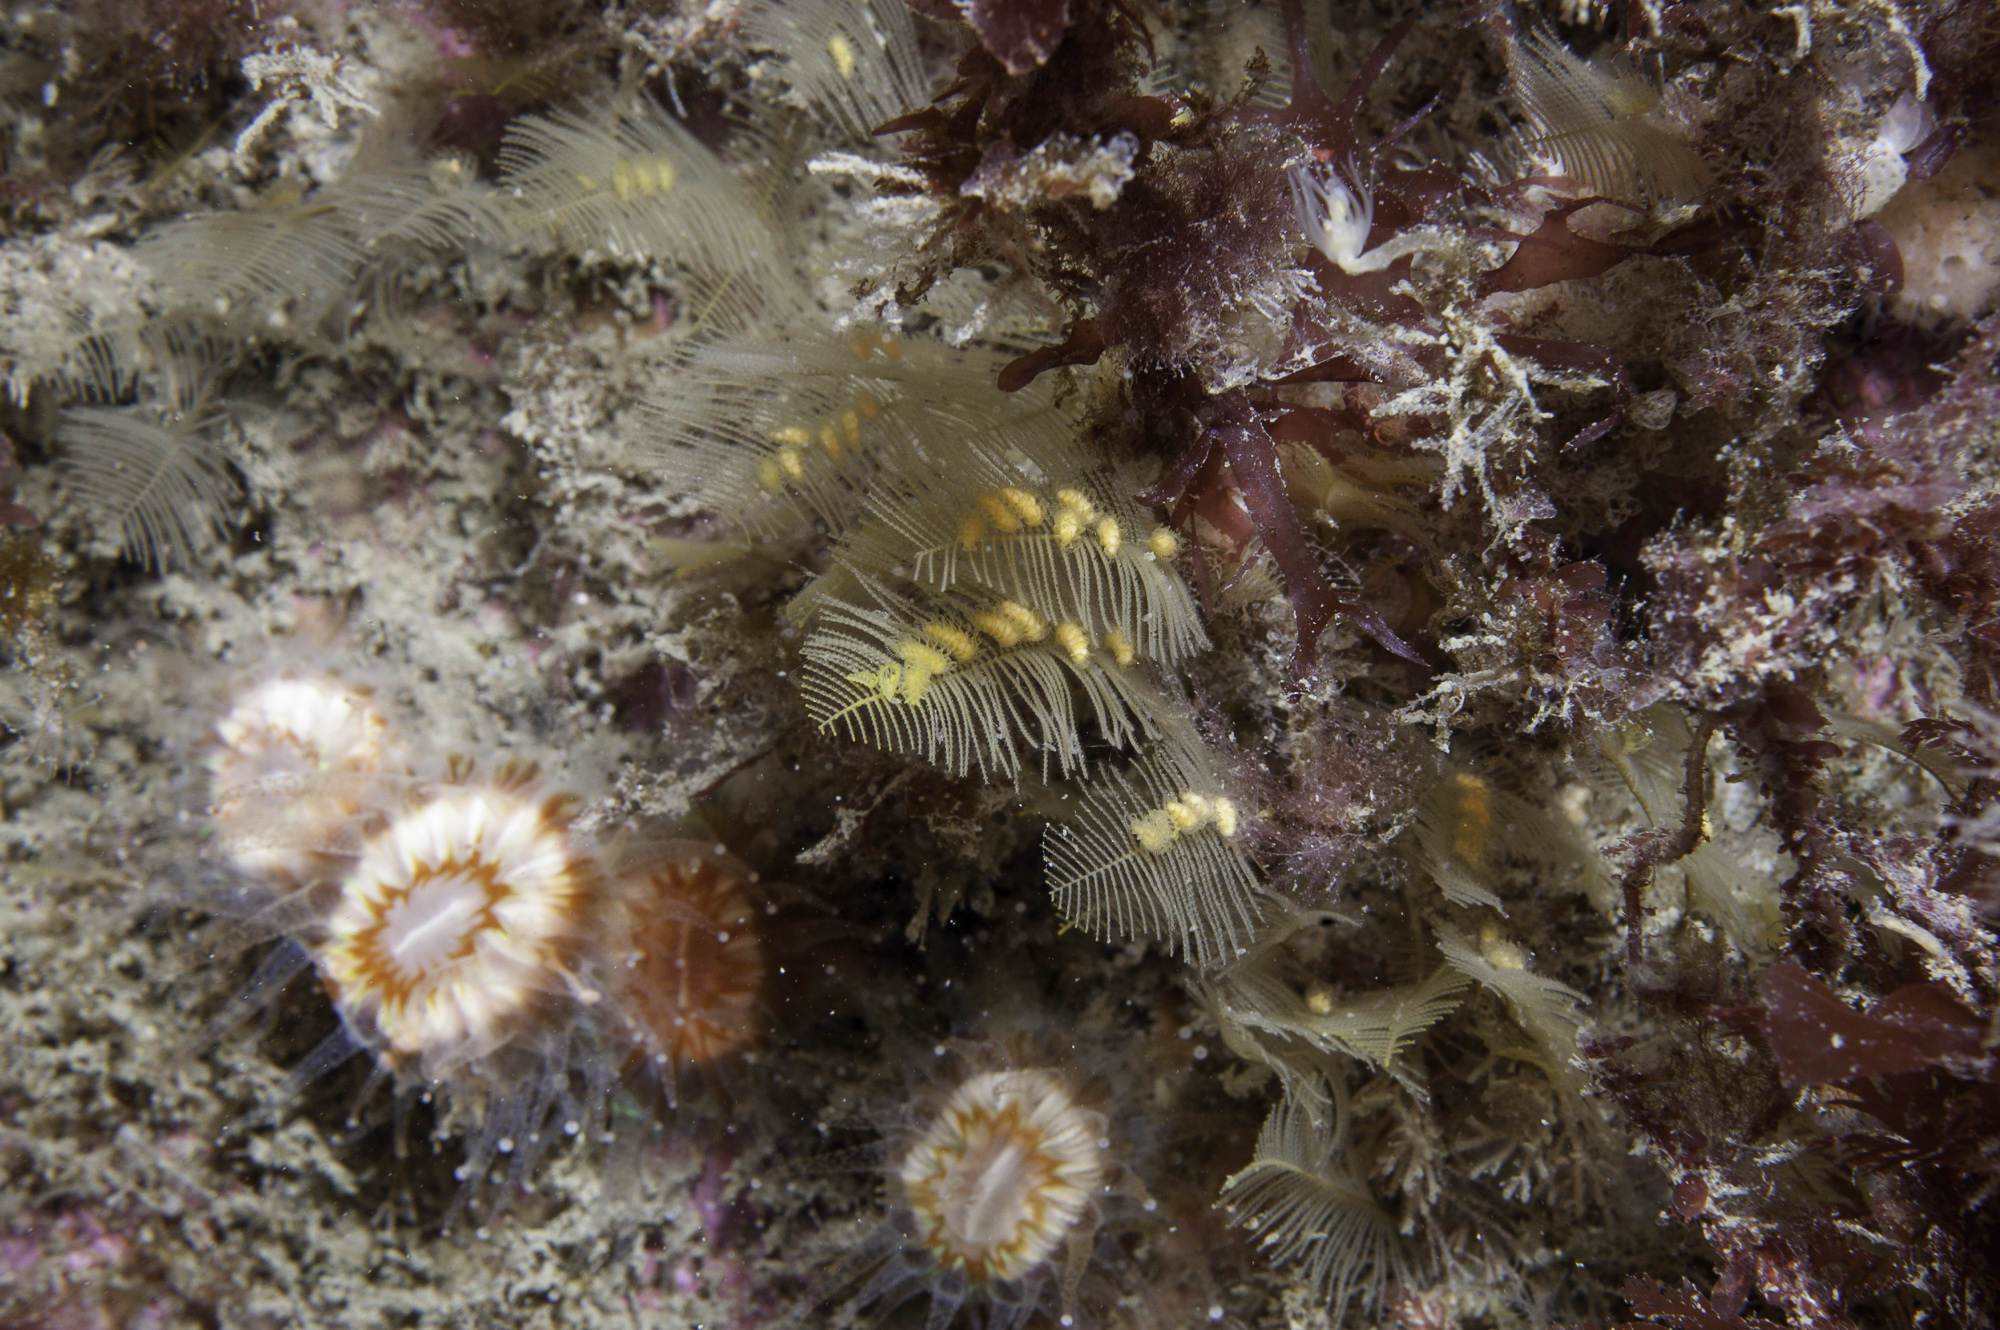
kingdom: Animalia
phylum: Cnidaria
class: Hydrozoa
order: Leptothecata
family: Aglaopheniidae
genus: Aglaophenia
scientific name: Aglaophenia tubulifera
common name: Plume hydroid
